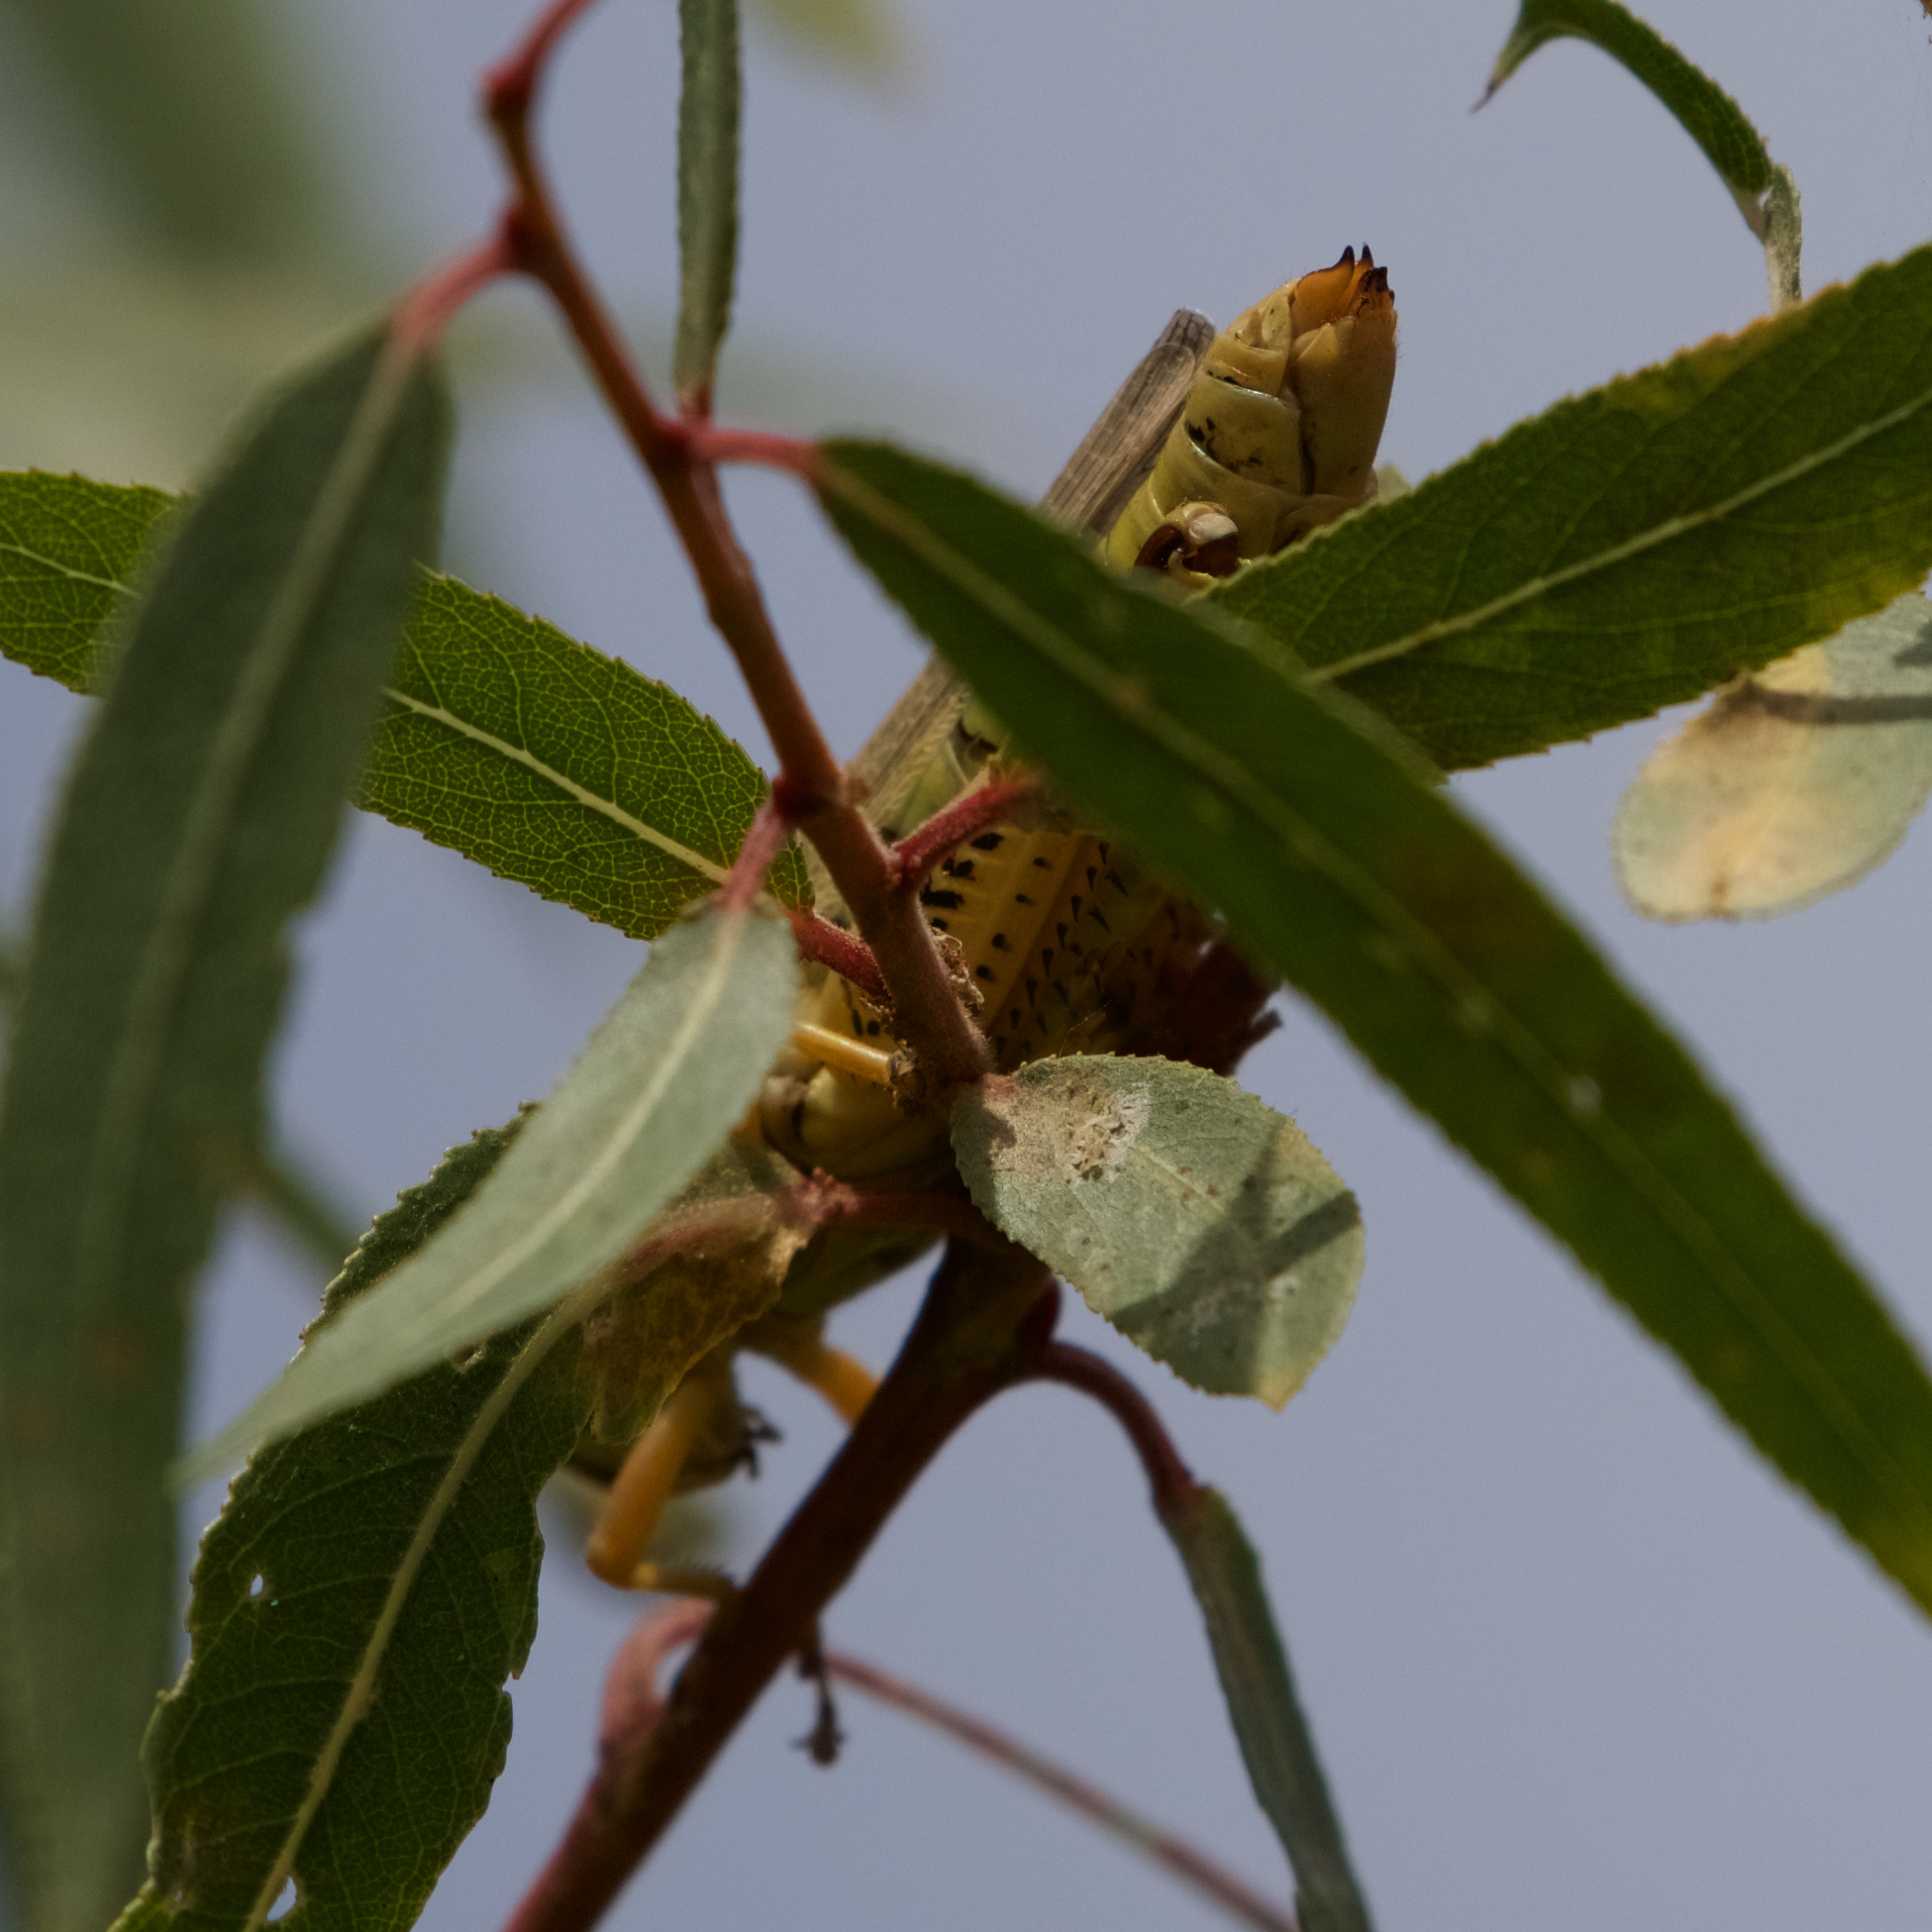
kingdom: Animalia
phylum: Arthropoda
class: Insecta
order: Orthoptera
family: Acrididae
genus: Melanoplus
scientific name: Melanoplus differentialis
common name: Differential grasshopper
